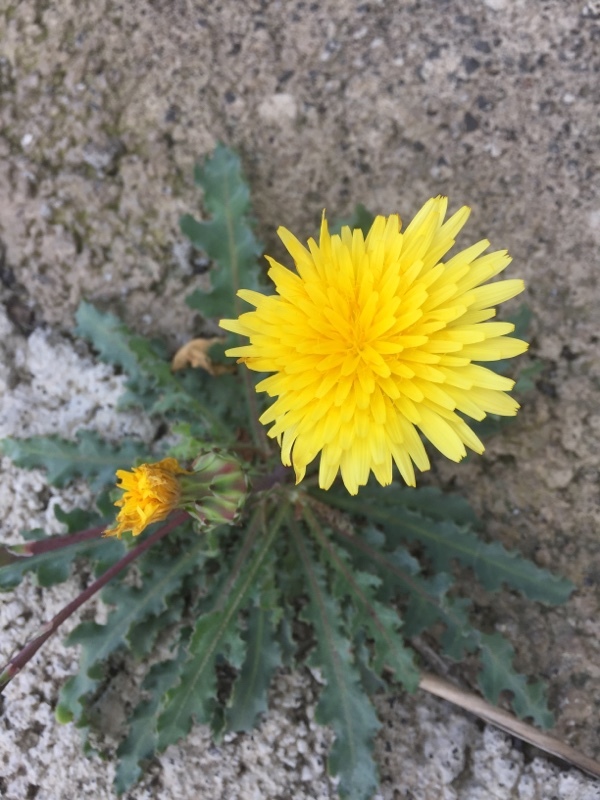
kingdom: Plantae
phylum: Tracheophyta
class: Magnoliopsida
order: Asterales
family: Asteraceae
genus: Reichardia
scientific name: Reichardia ligulata
